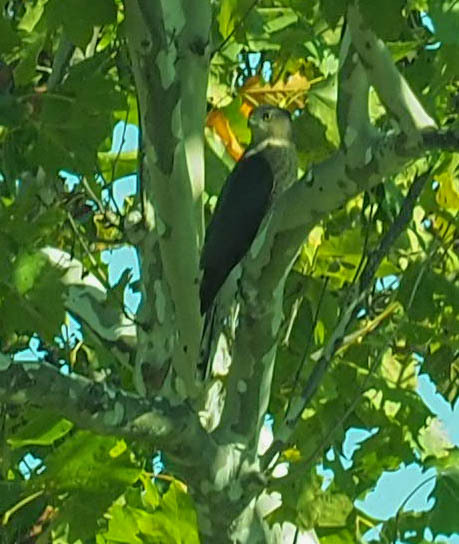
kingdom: Animalia
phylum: Chordata
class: Aves
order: Accipitriformes
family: Accipitridae
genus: Accipiter
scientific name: Accipiter cooperii
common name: Cooper's hawk
